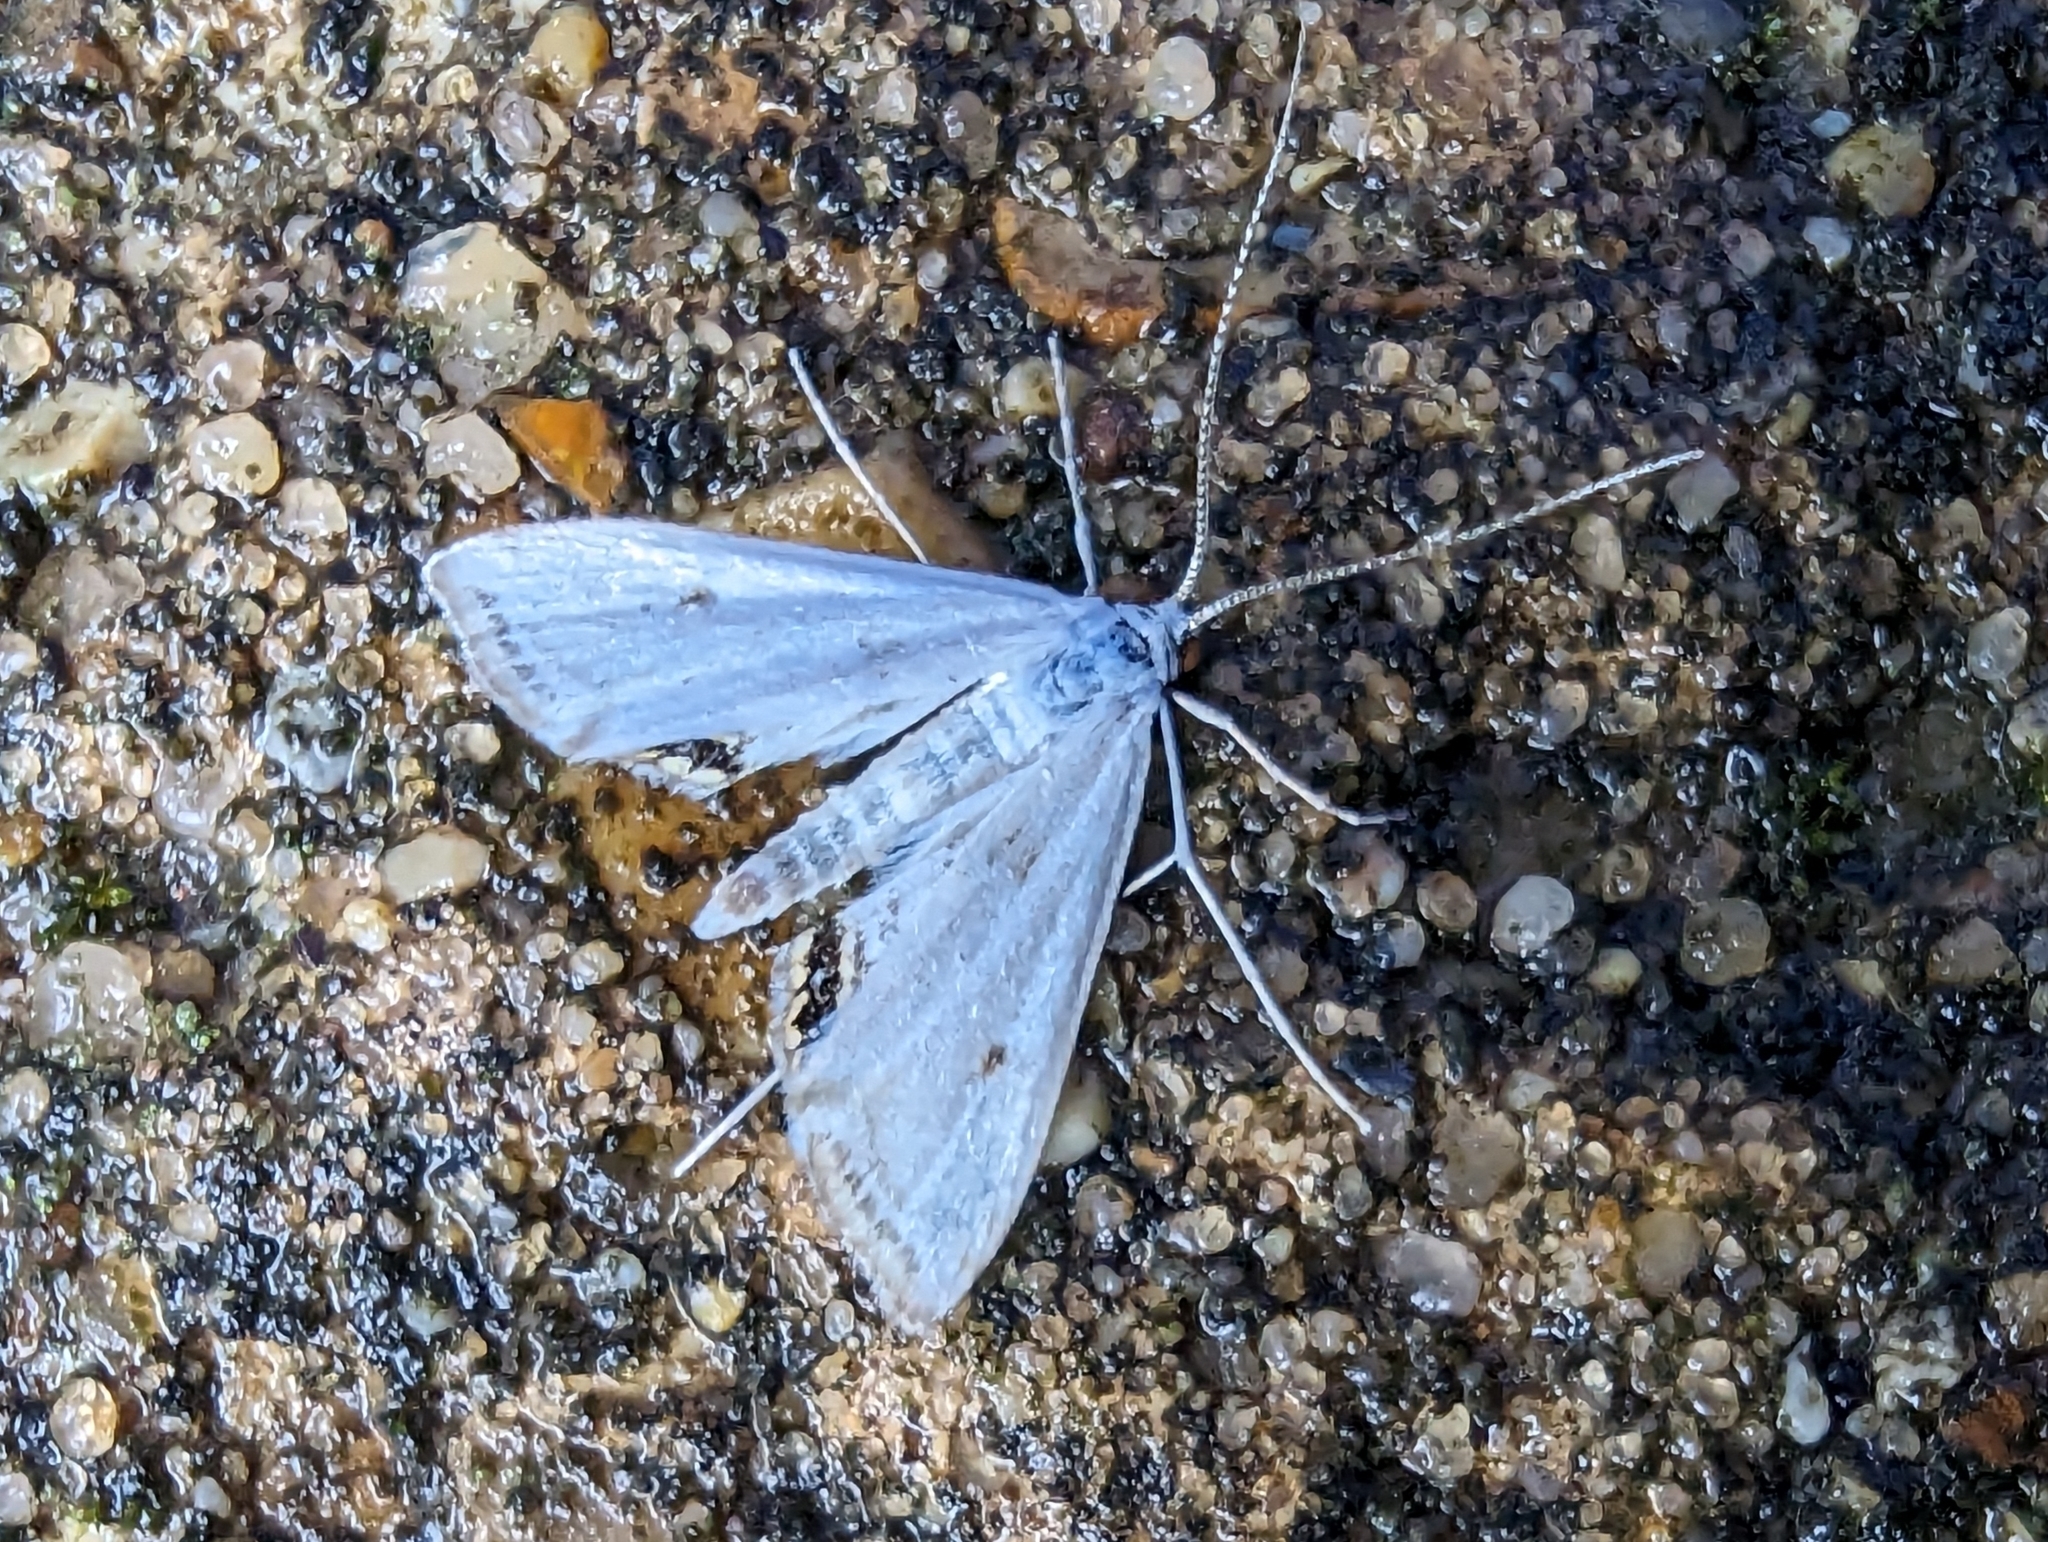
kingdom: Animalia
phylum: Arthropoda
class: Insecta
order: Lepidoptera
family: Crambidae
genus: Cataclysta
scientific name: Cataclysta lemnata
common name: Small china-mark
